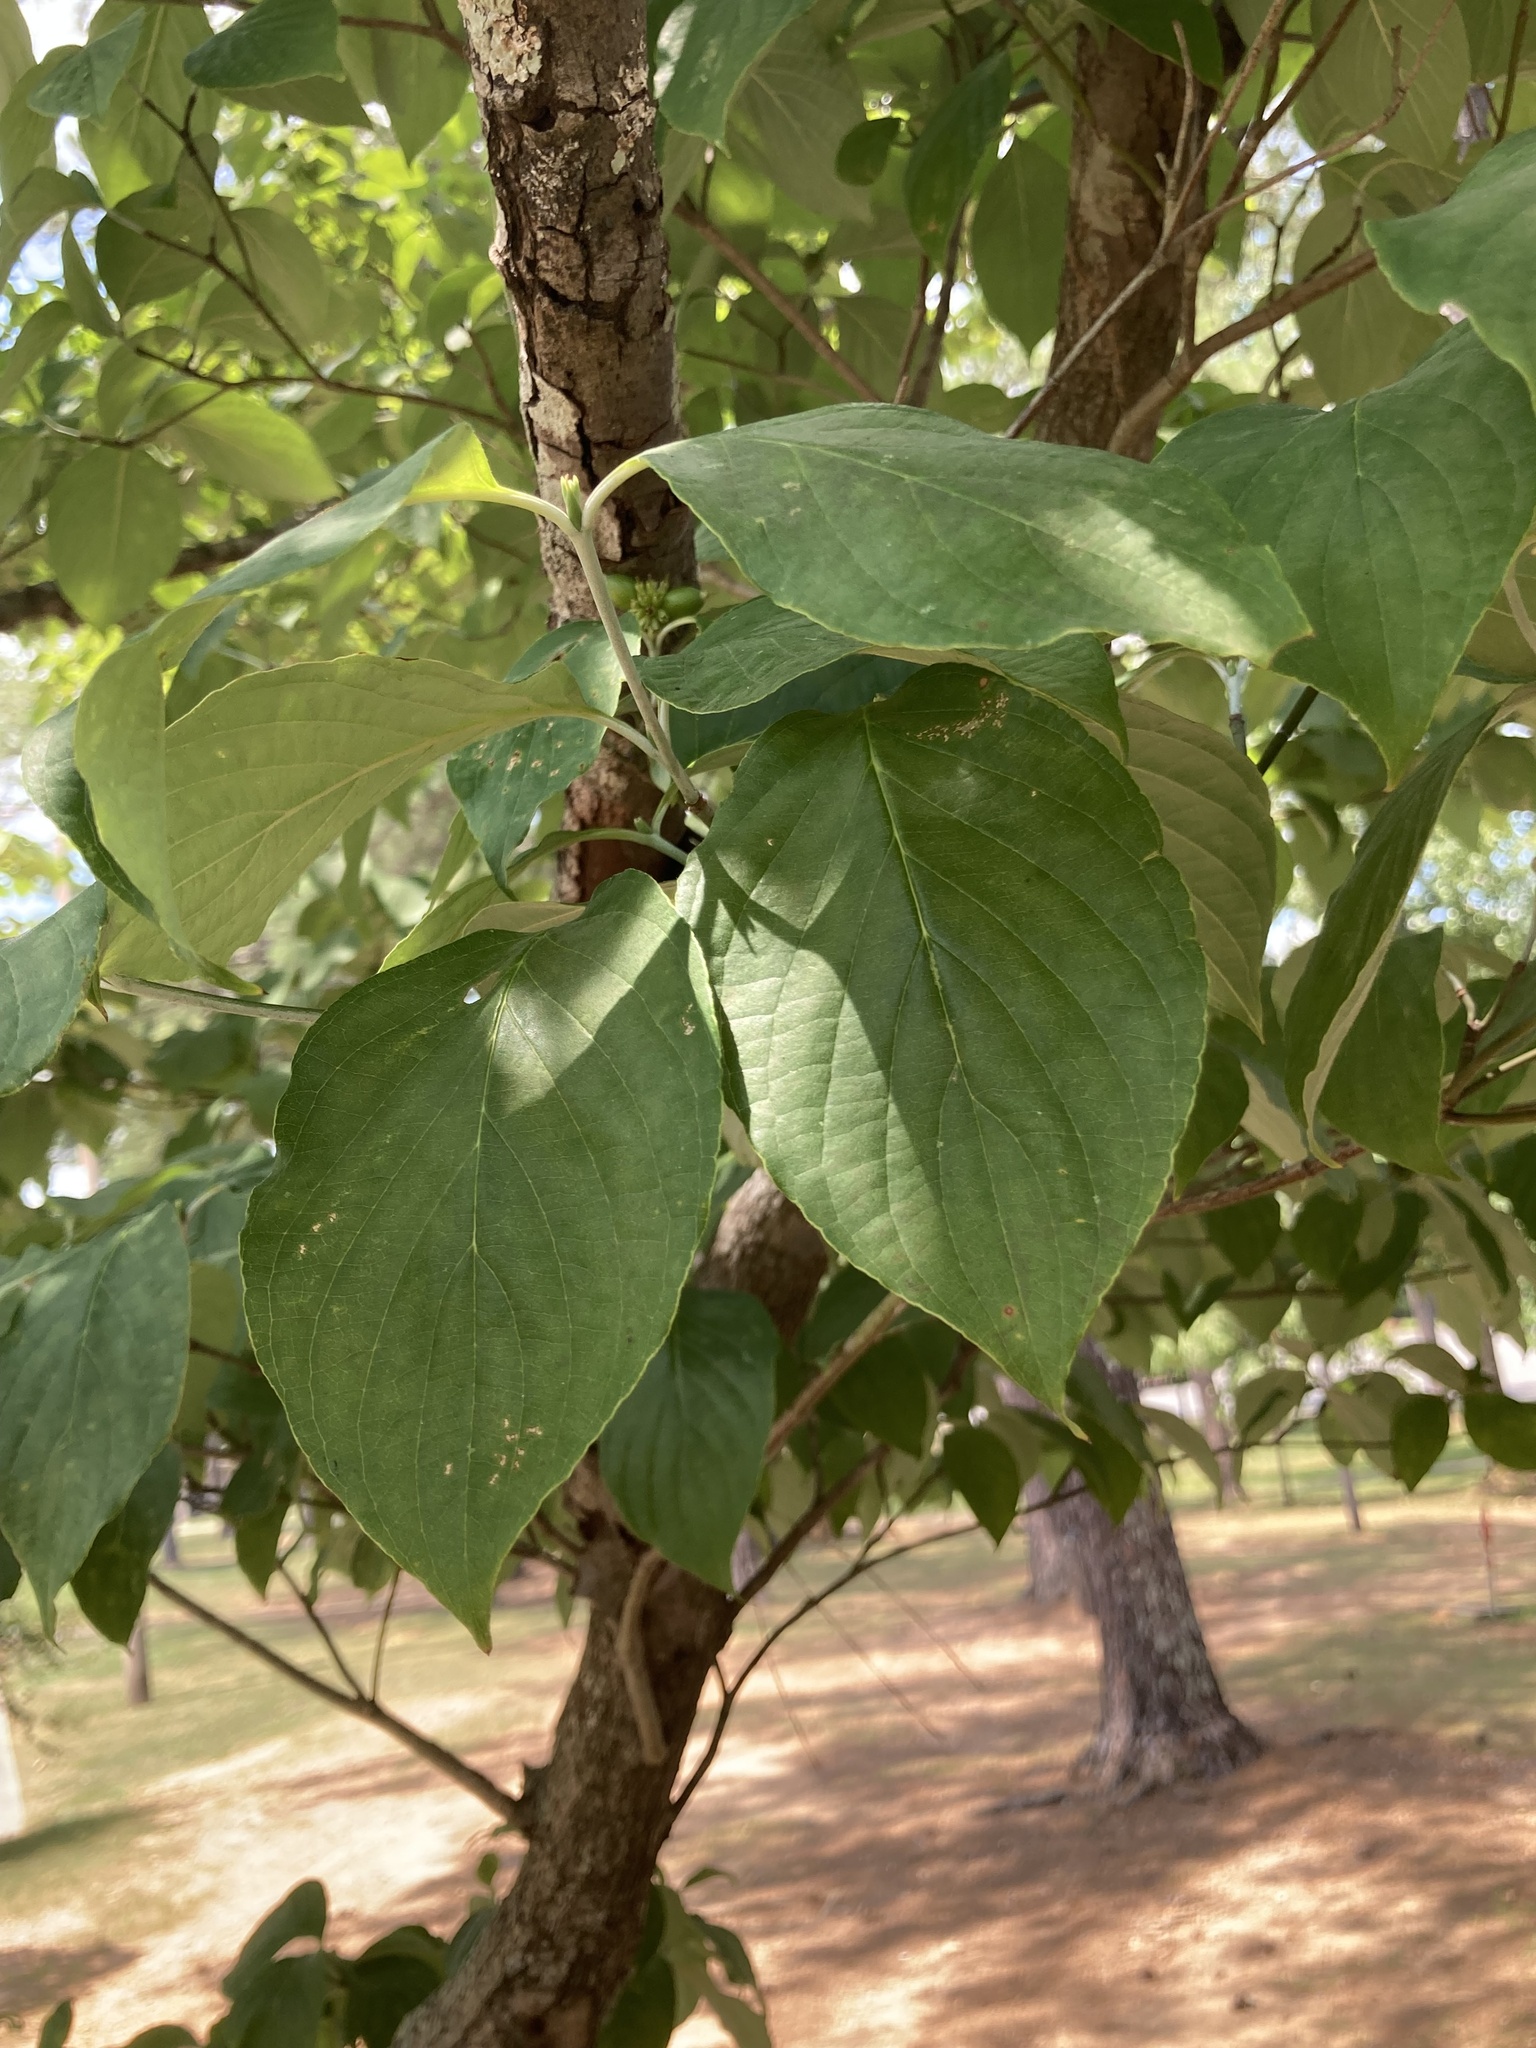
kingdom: Plantae
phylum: Tracheophyta
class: Magnoliopsida
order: Cornales
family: Cornaceae
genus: Cornus
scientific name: Cornus florida
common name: Flowering dogwood
